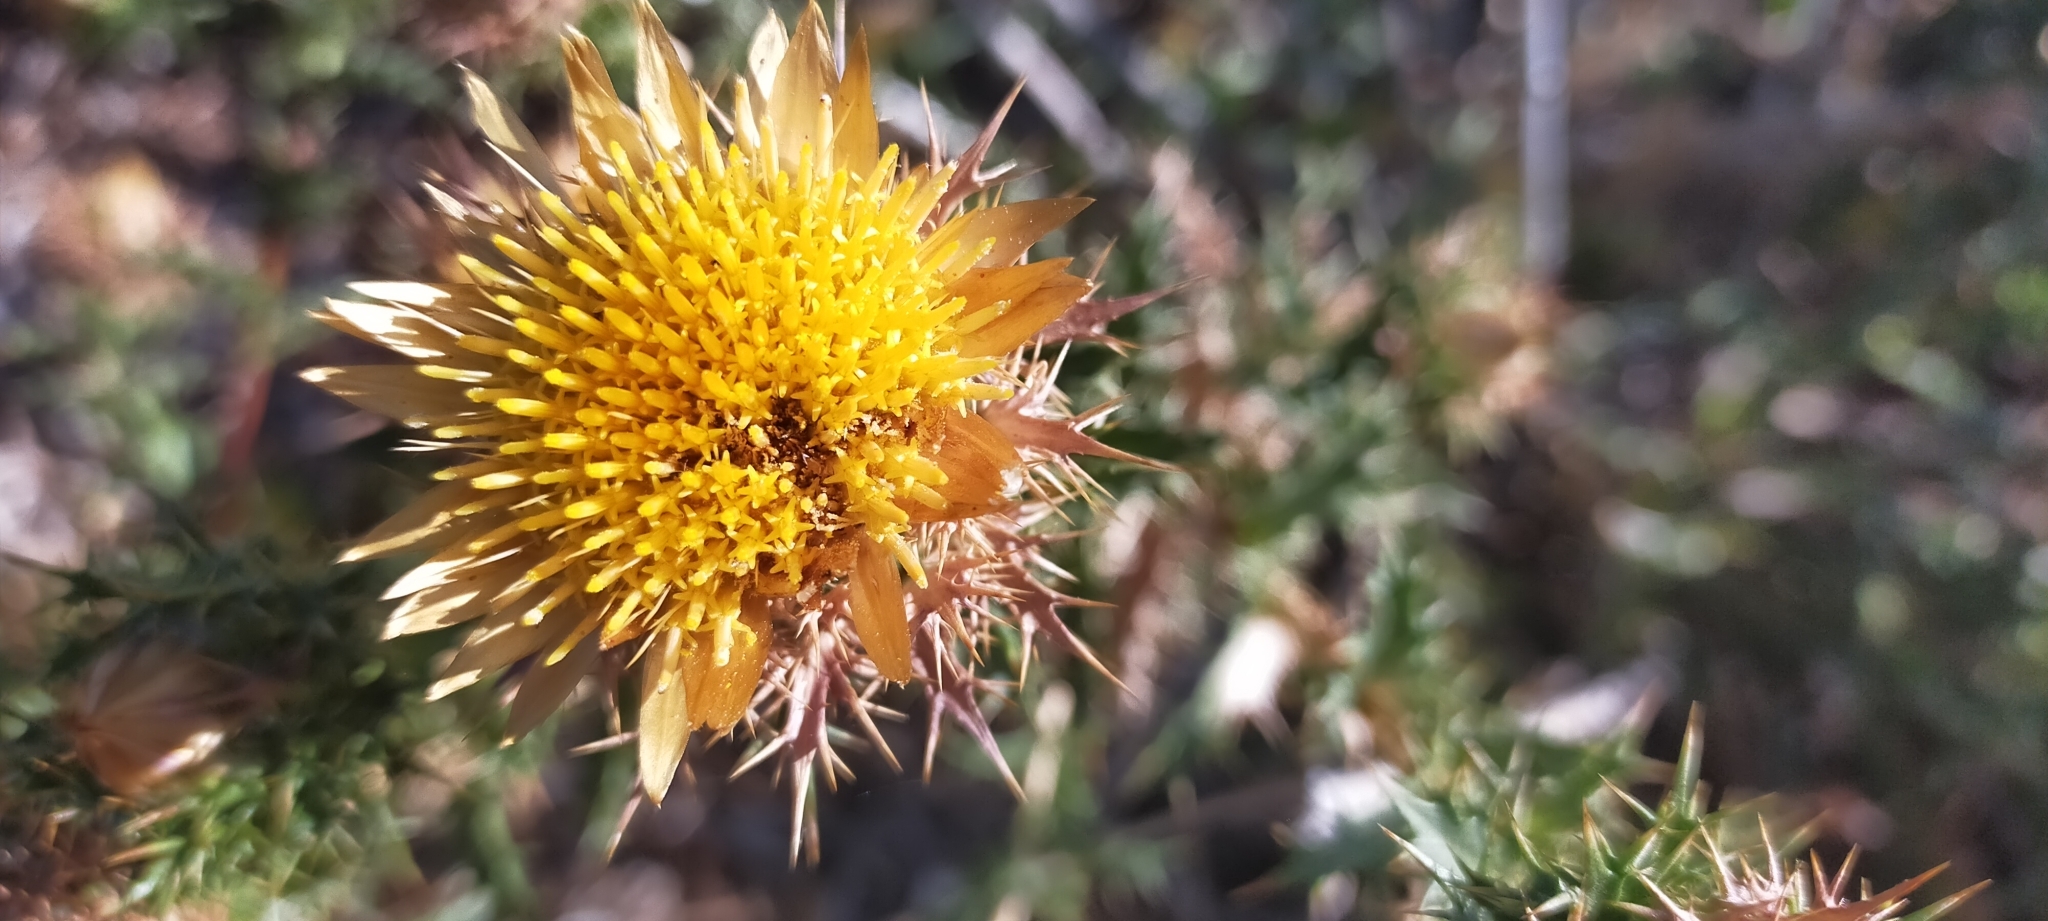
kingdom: Plantae
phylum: Tracheophyta
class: Magnoliopsida
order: Asterales
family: Asteraceae
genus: Carlina
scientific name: Carlina hispanica
